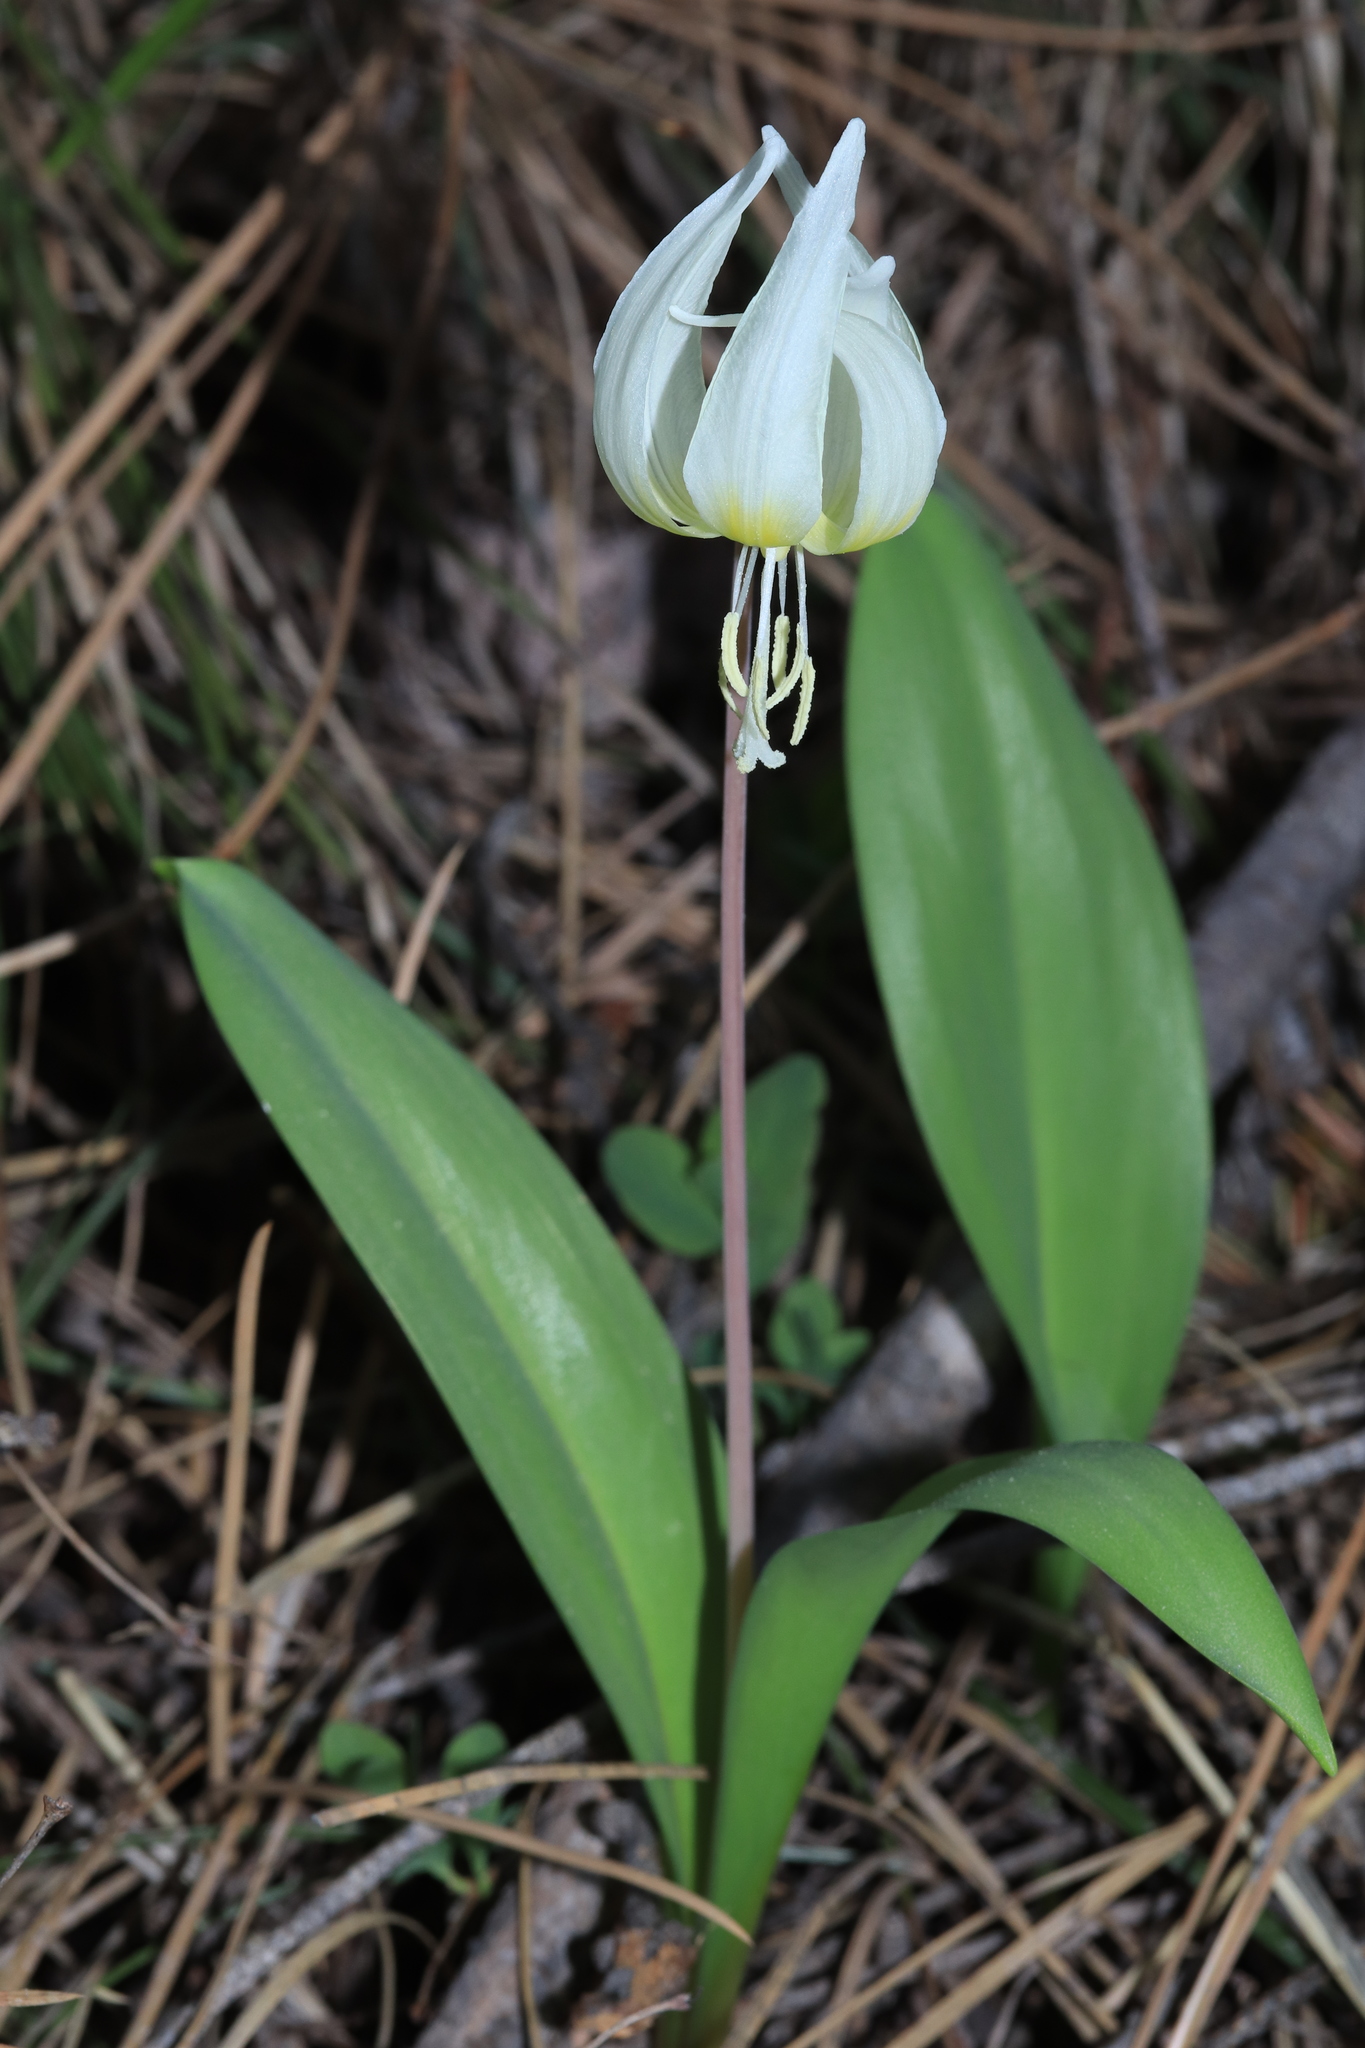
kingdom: Plantae
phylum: Tracheophyta
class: Liliopsida
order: Liliales
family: Liliaceae
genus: Erythronium
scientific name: Erythronium idahoense
